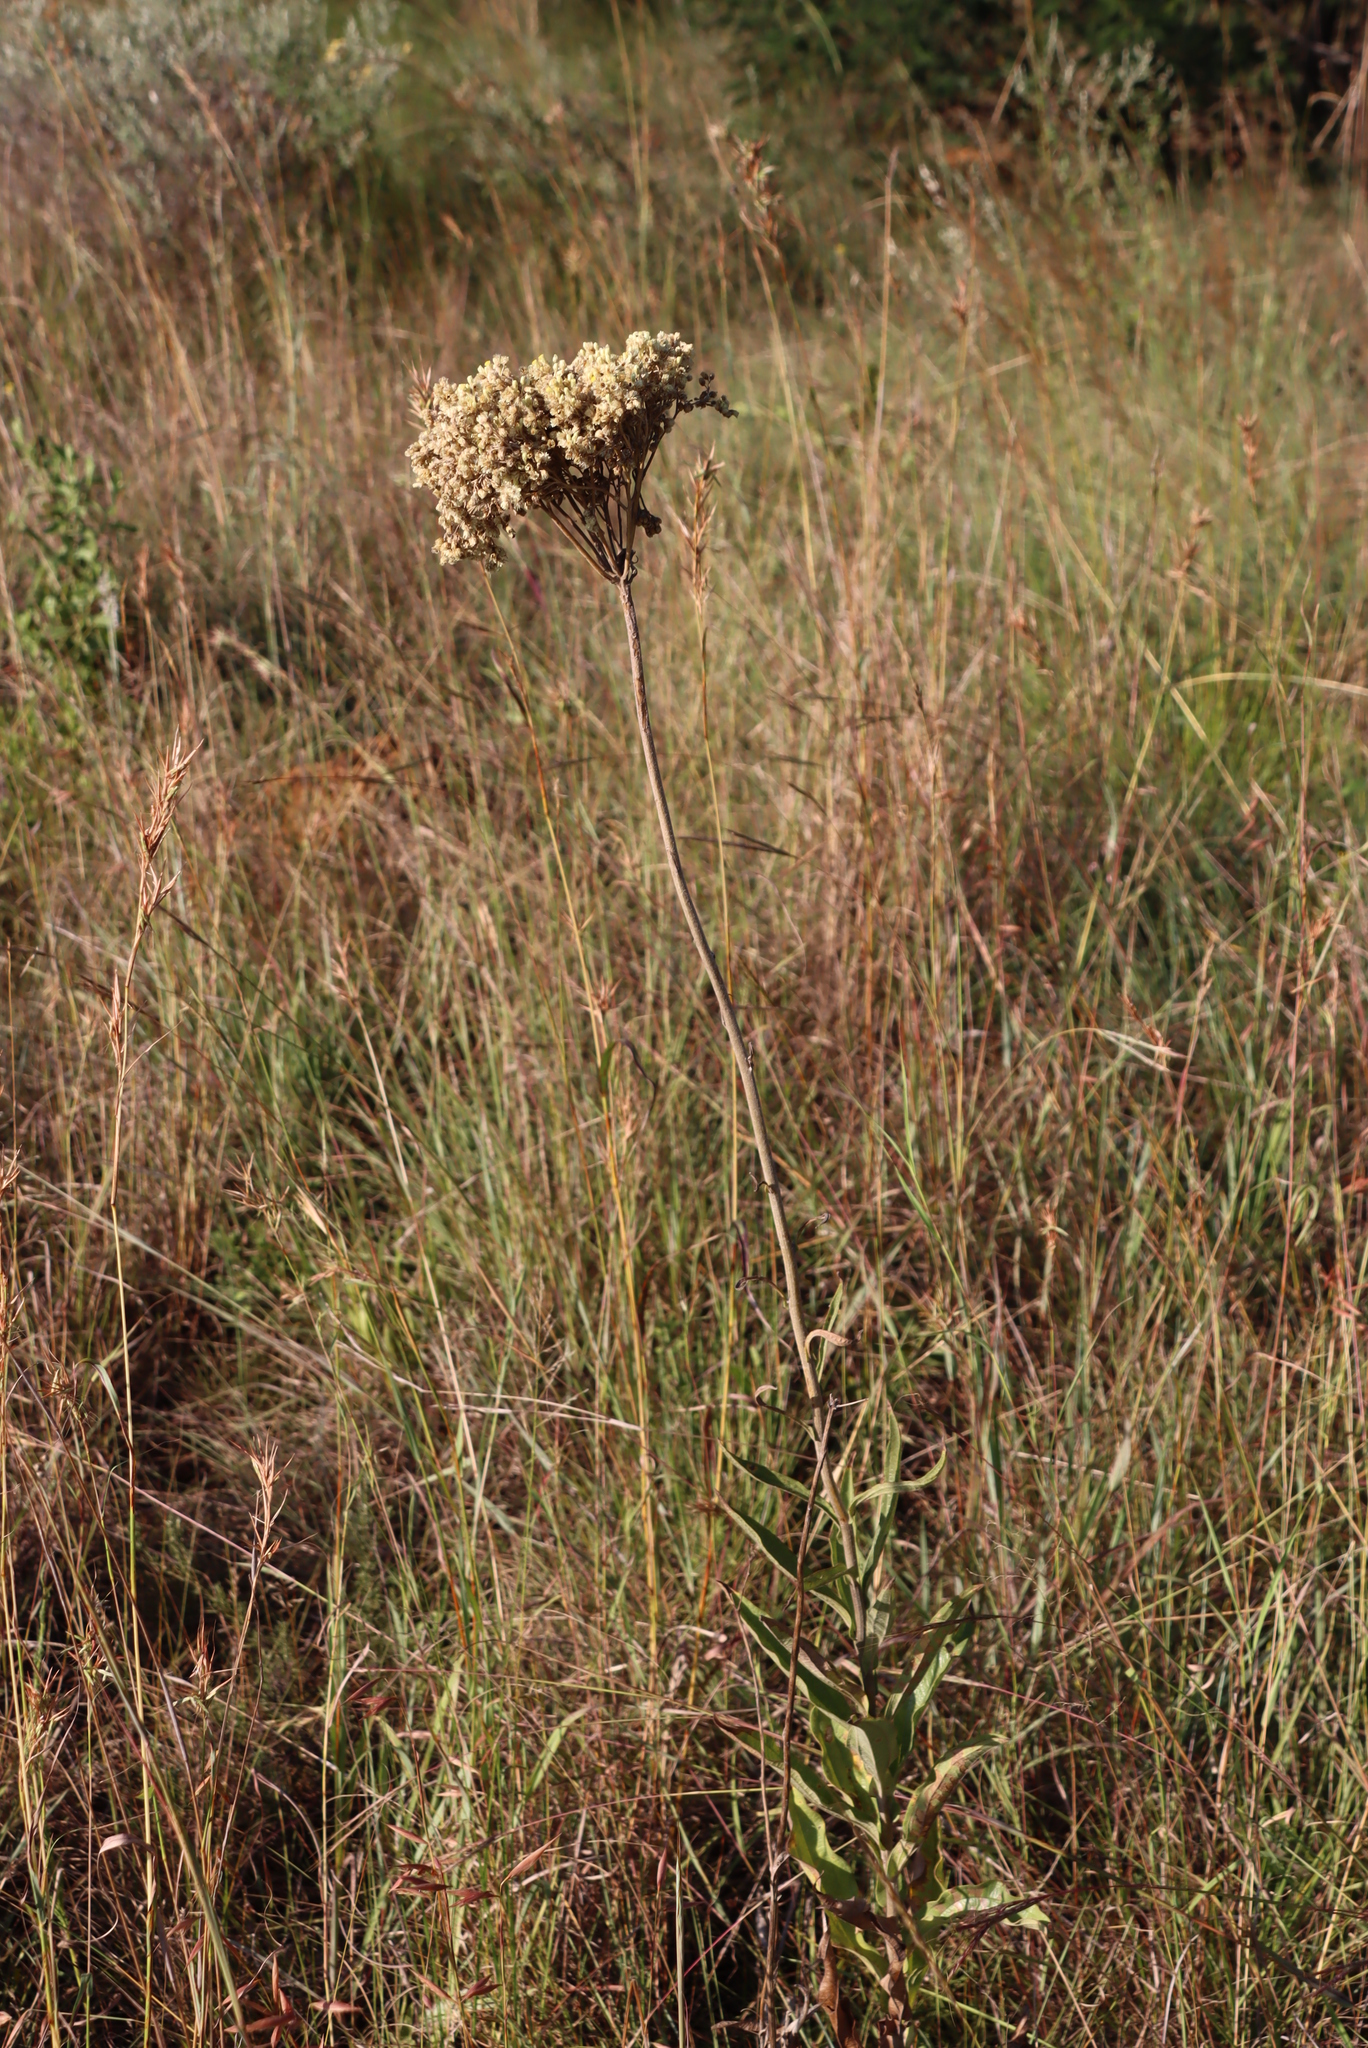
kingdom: Plantae
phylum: Tracheophyta
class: Magnoliopsida
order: Asterales
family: Asteraceae
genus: Helichrysum
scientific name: Helichrysum nudifolium
